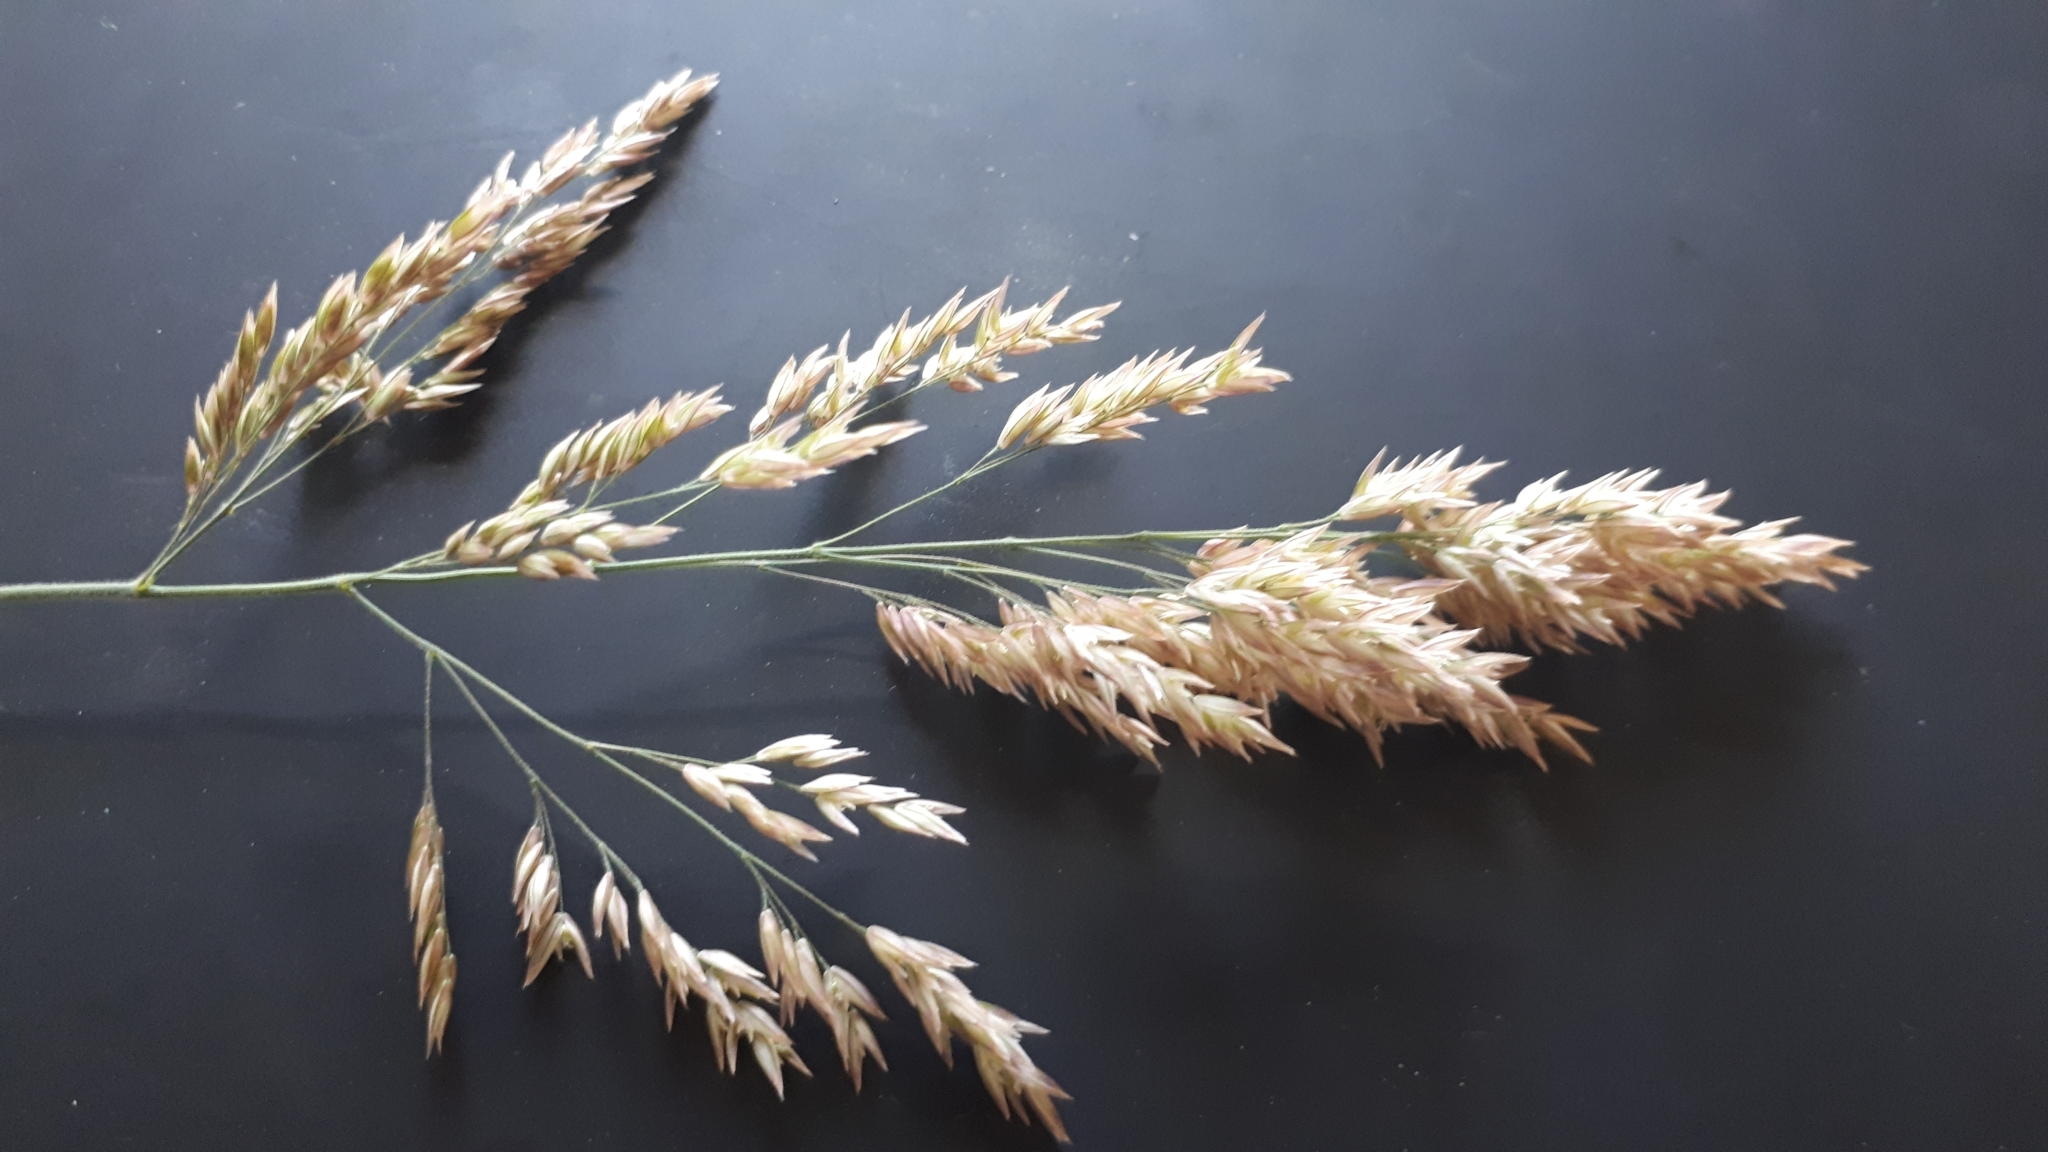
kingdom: Plantae
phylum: Tracheophyta
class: Liliopsida
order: Poales
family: Poaceae
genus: Holcus
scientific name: Holcus lanatus
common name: Yorkshire-fog
